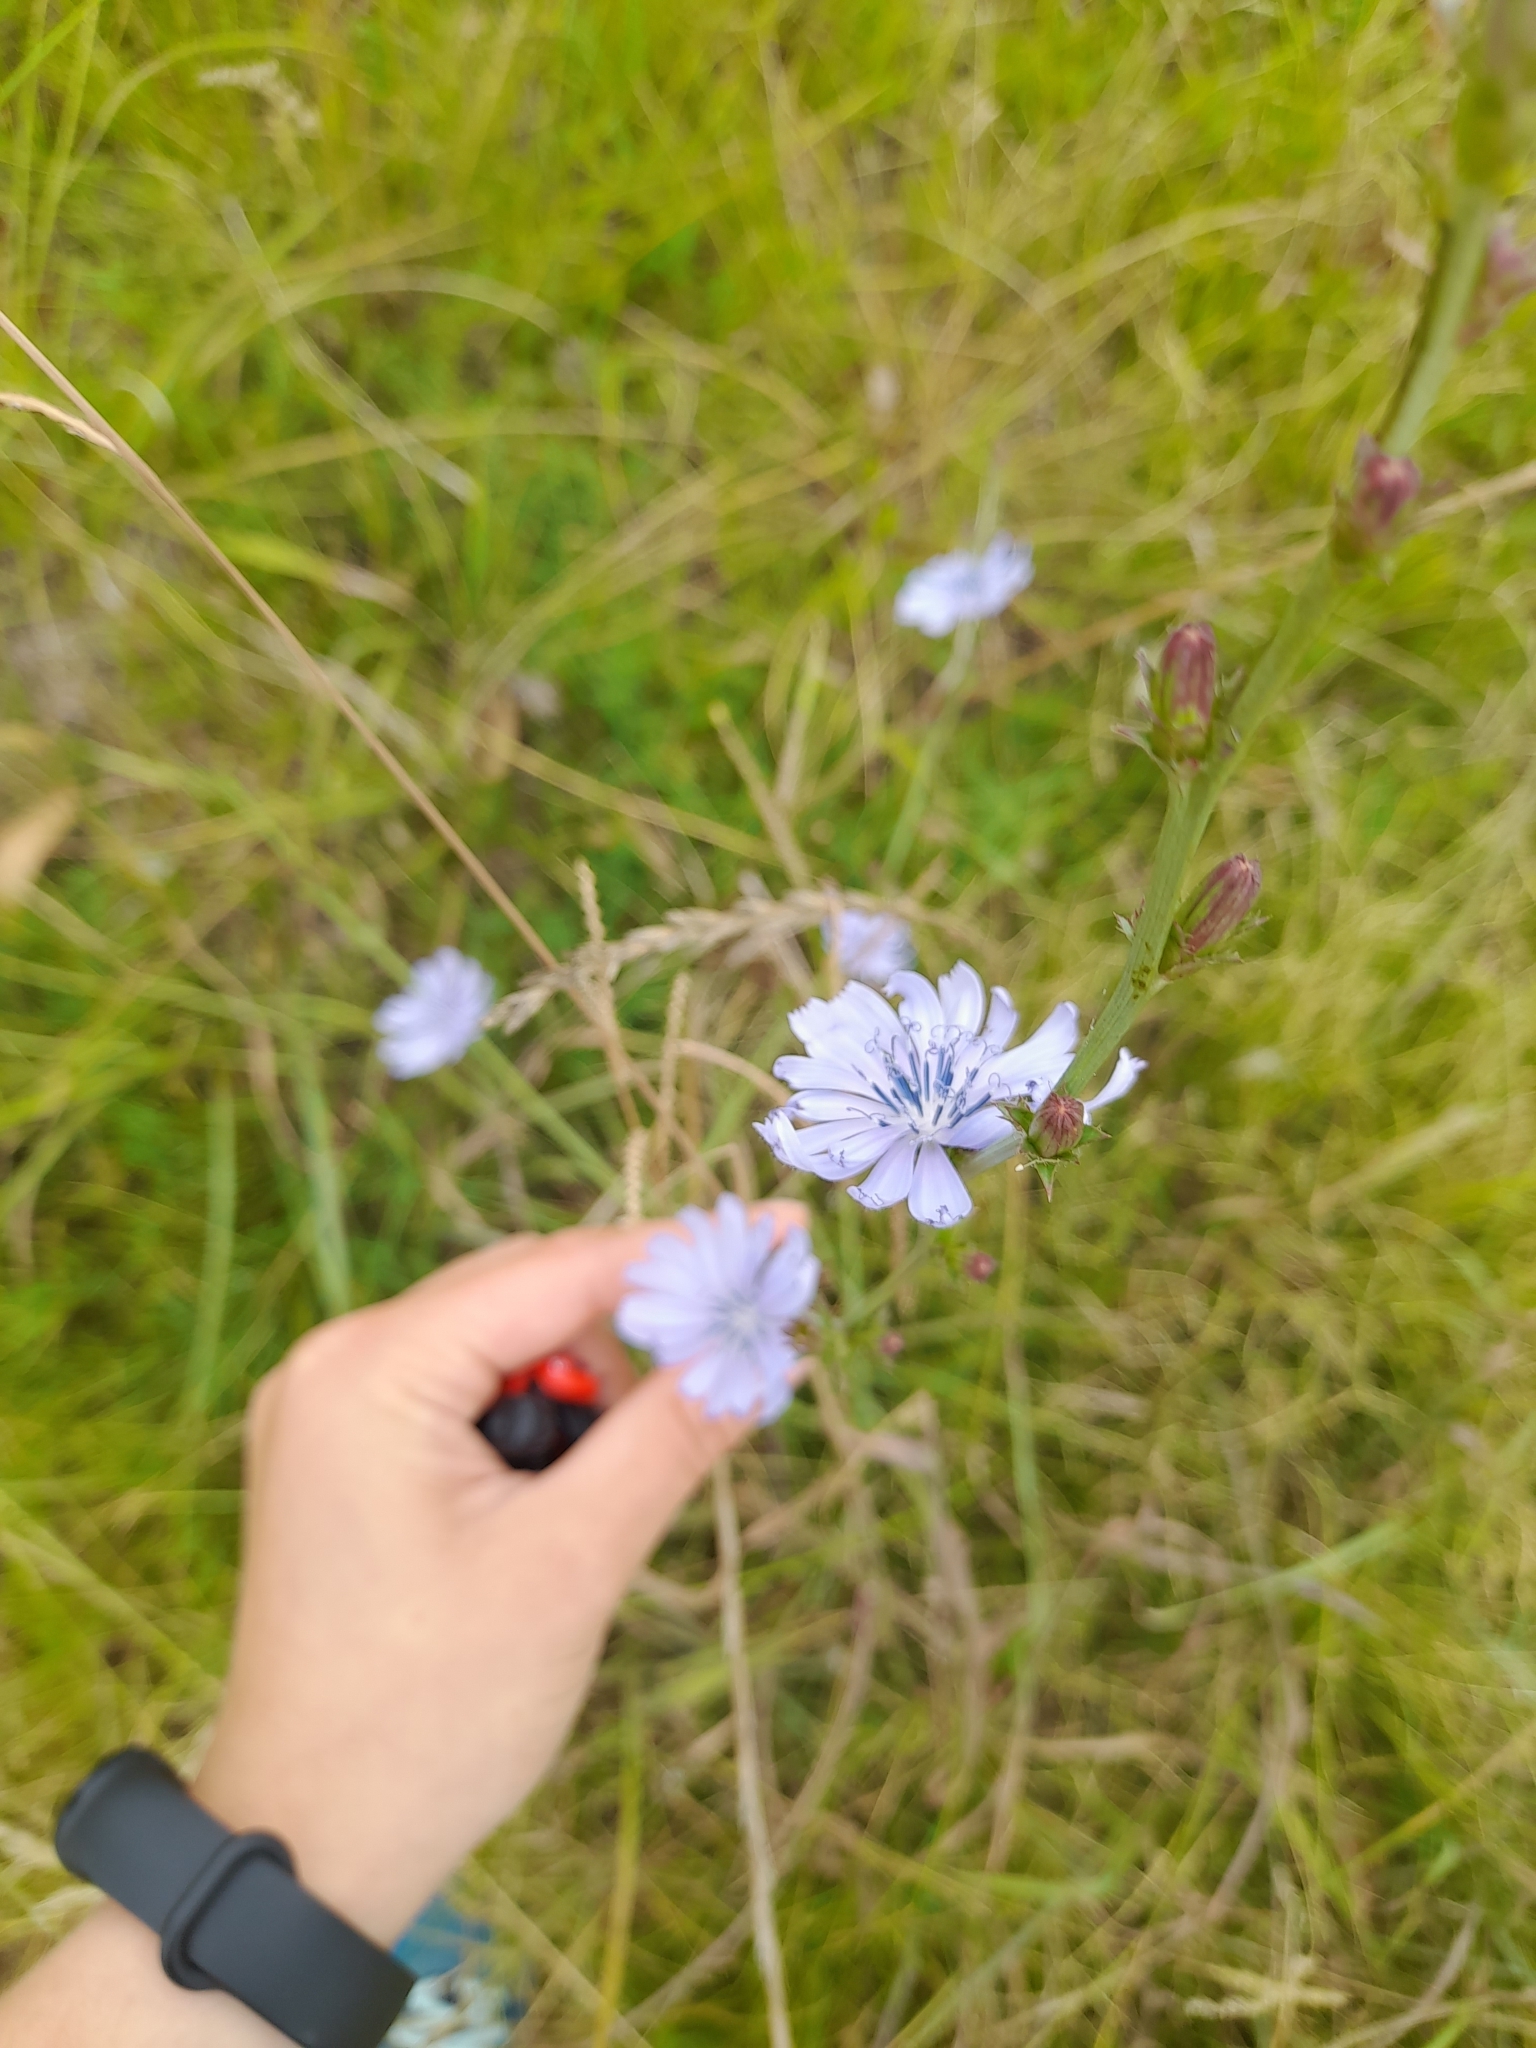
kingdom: Plantae
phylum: Tracheophyta
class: Magnoliopsida
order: Asterales
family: Asteraceae
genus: Cichorium
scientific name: Cichorium intybus
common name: Chicory
